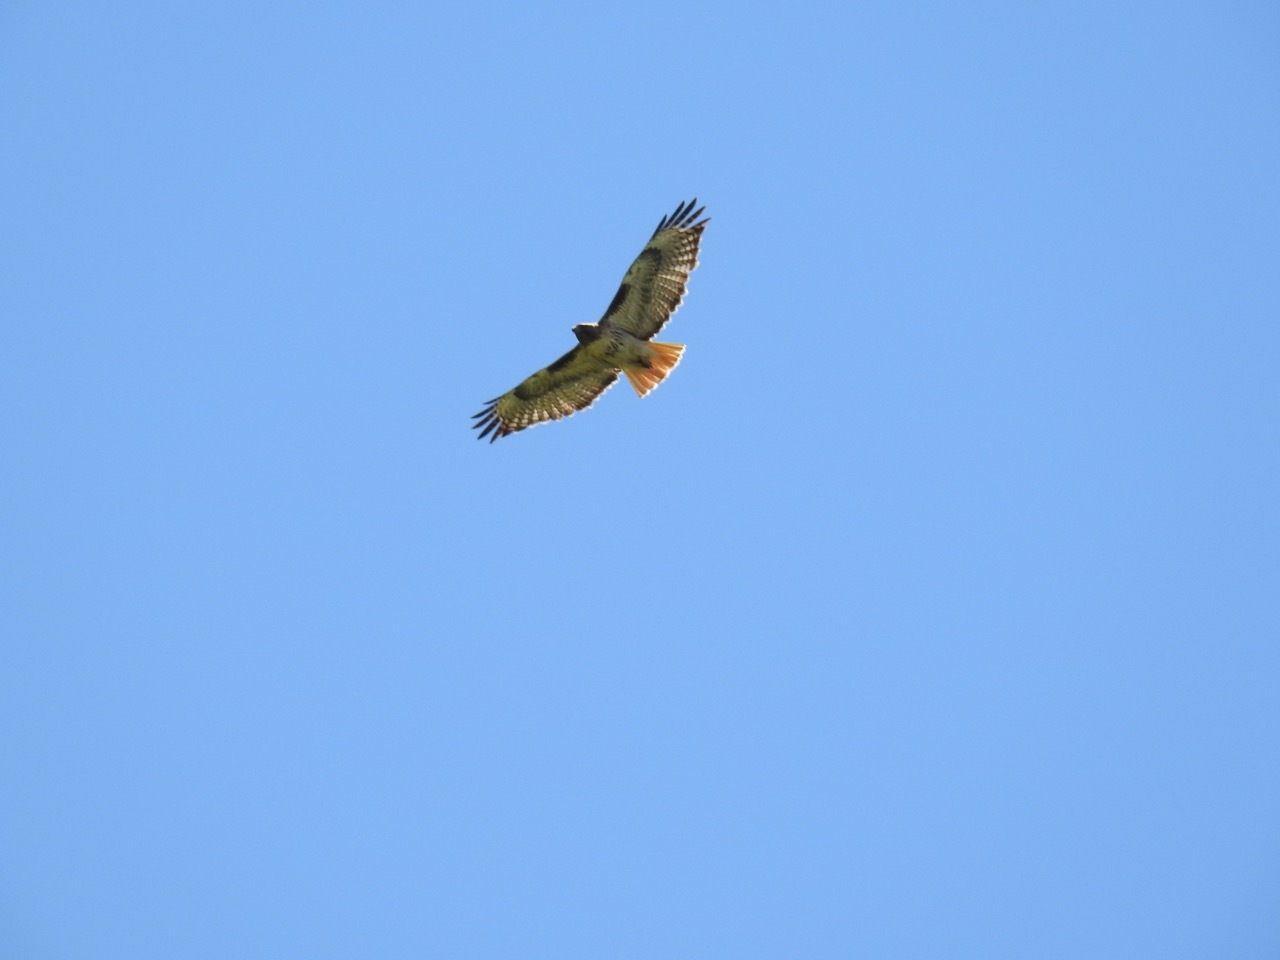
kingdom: Animalia
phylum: Chordata
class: Aves
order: Accipitriformes
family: Accipitridae
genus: Buteo
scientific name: Buteo jamaicensis
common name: Red-tailed hawk
